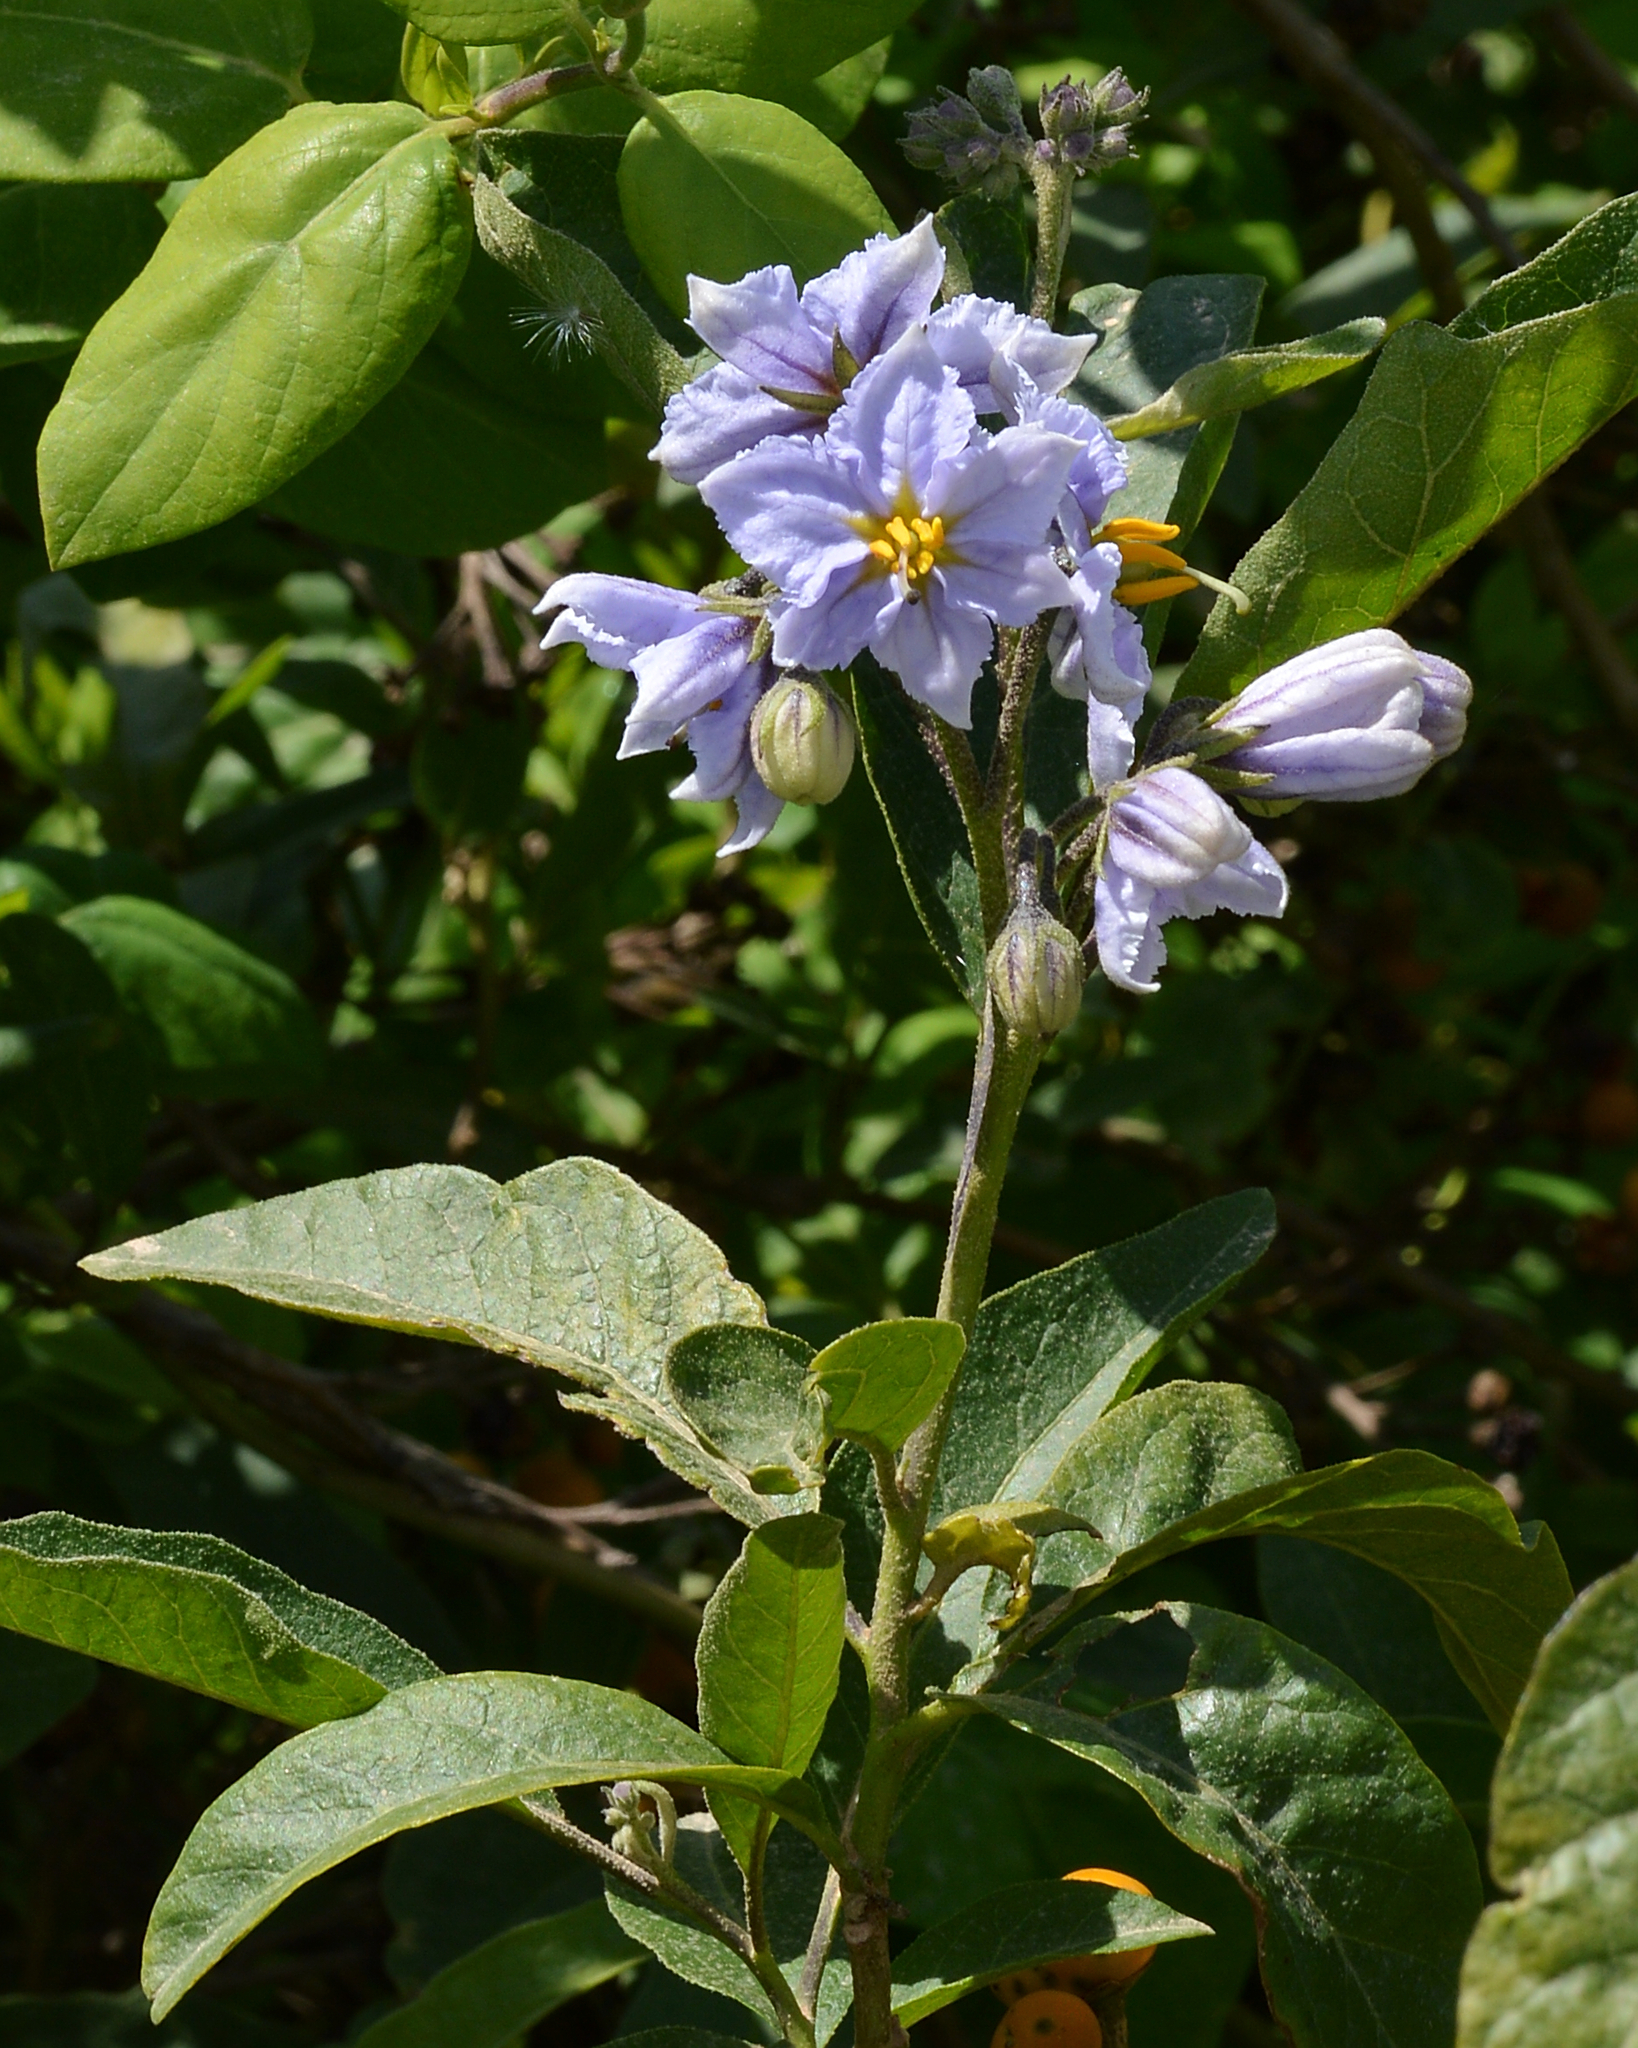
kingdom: Plantae
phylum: Tracheophyta
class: Magnoliopsida
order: Solanales
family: Solanaceae
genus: Solanum
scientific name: Solanum bonariense
